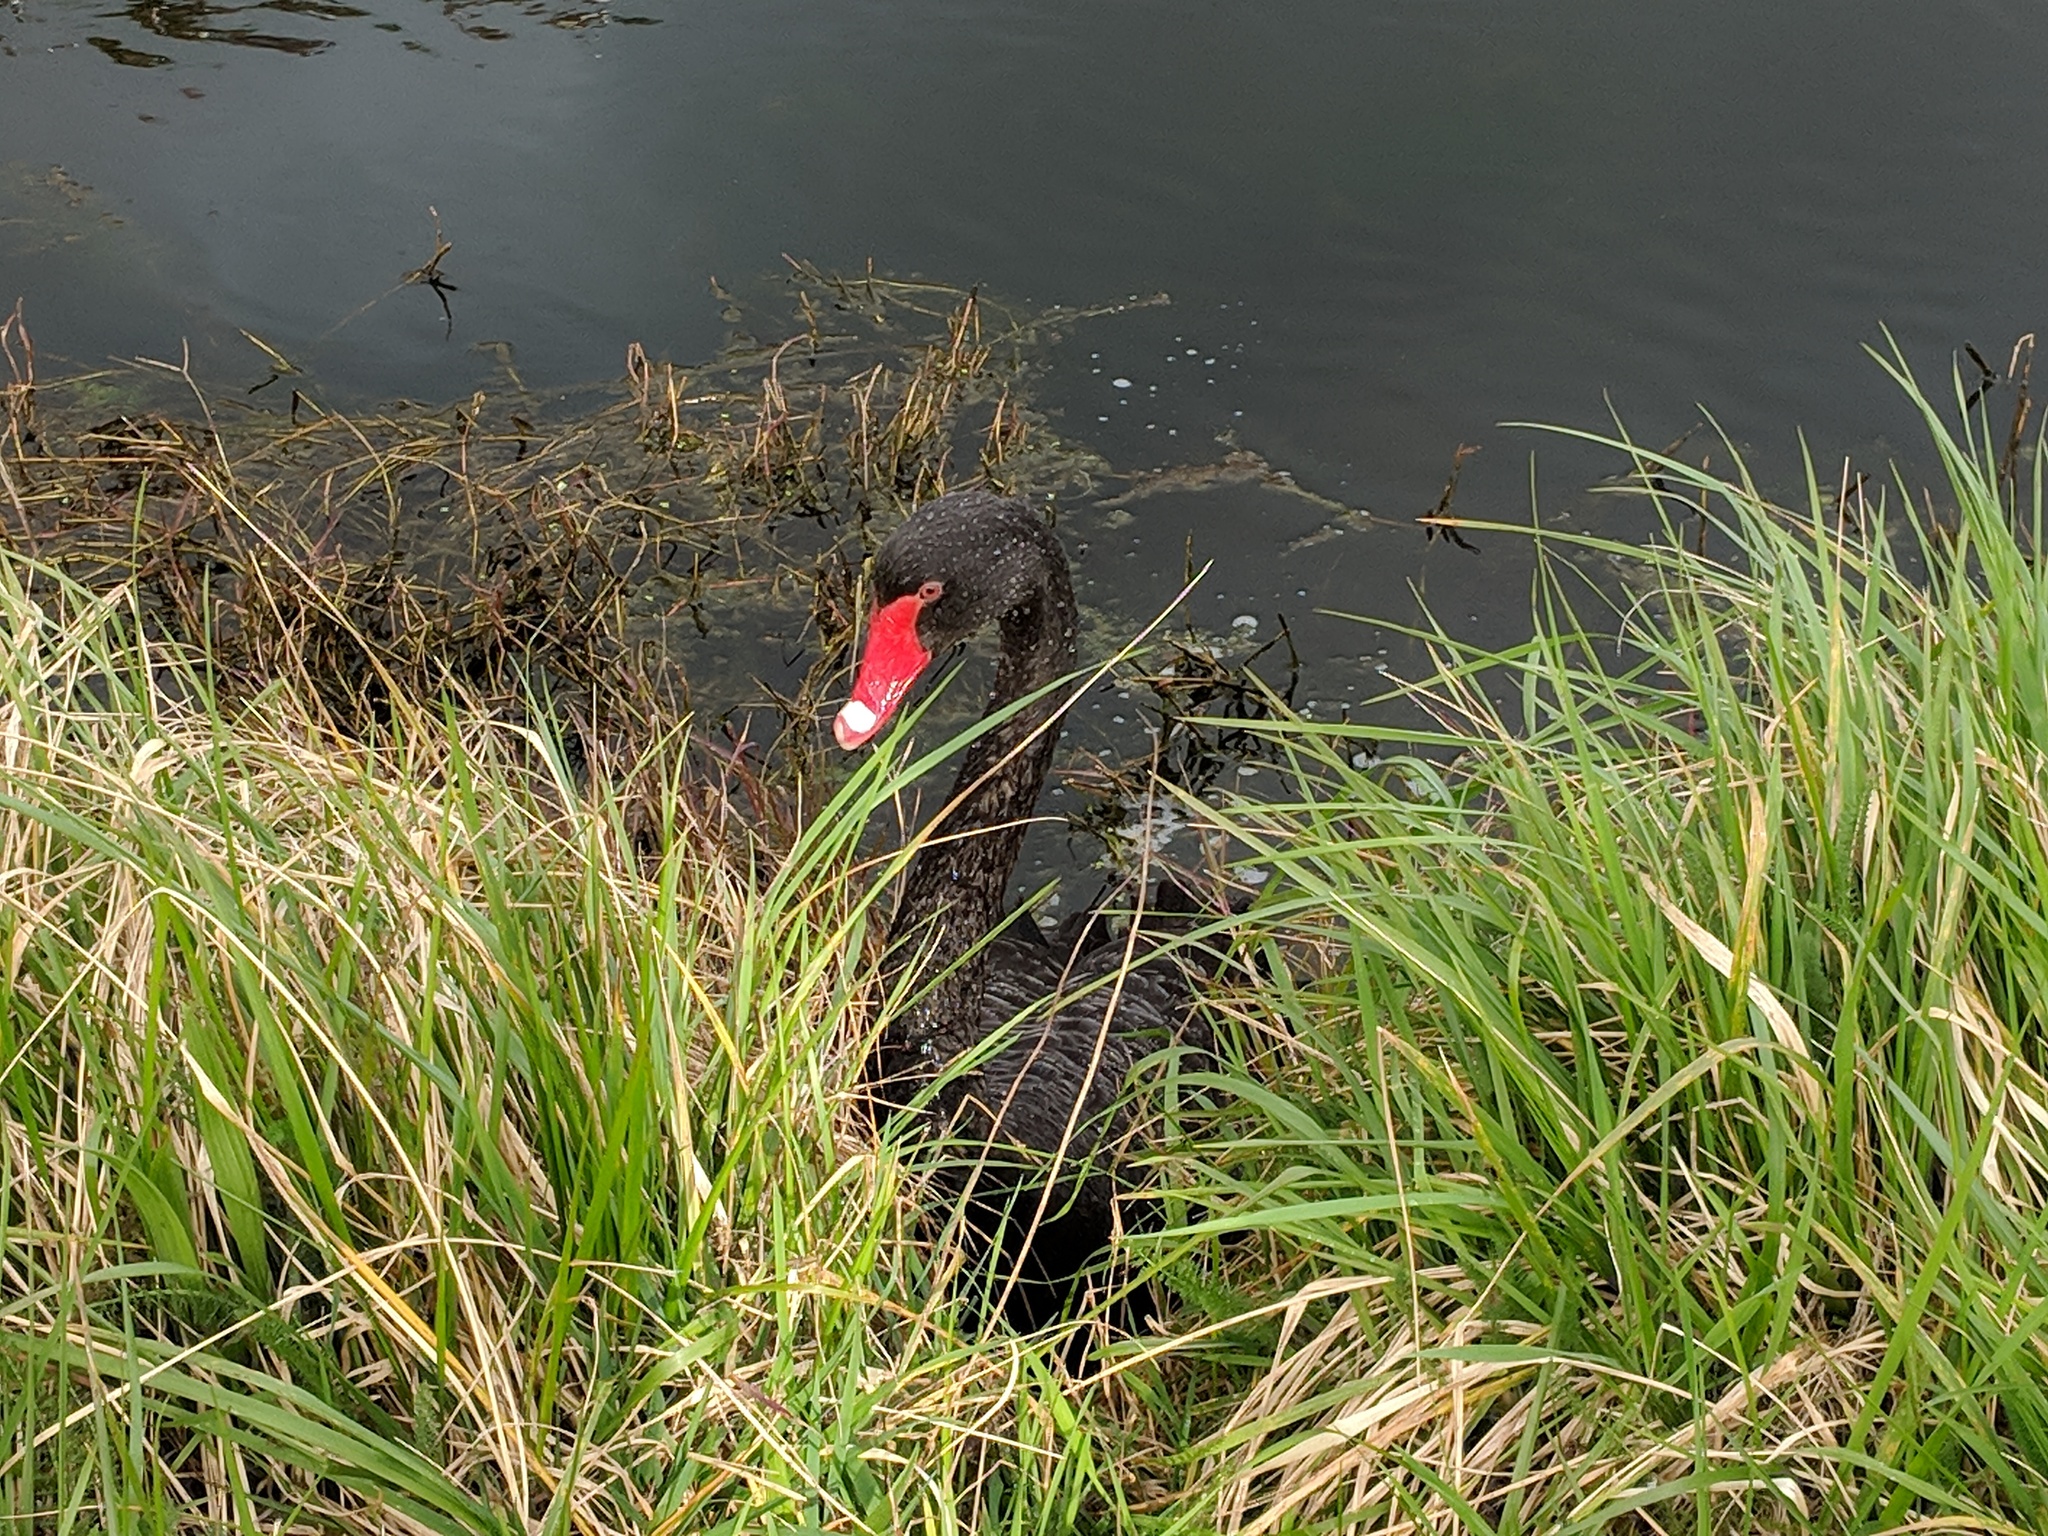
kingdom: Animalia
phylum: Chordata
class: Aves
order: Anseriformes
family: Anatidae
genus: Cygnus
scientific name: Cygnus atratus
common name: Black swan
